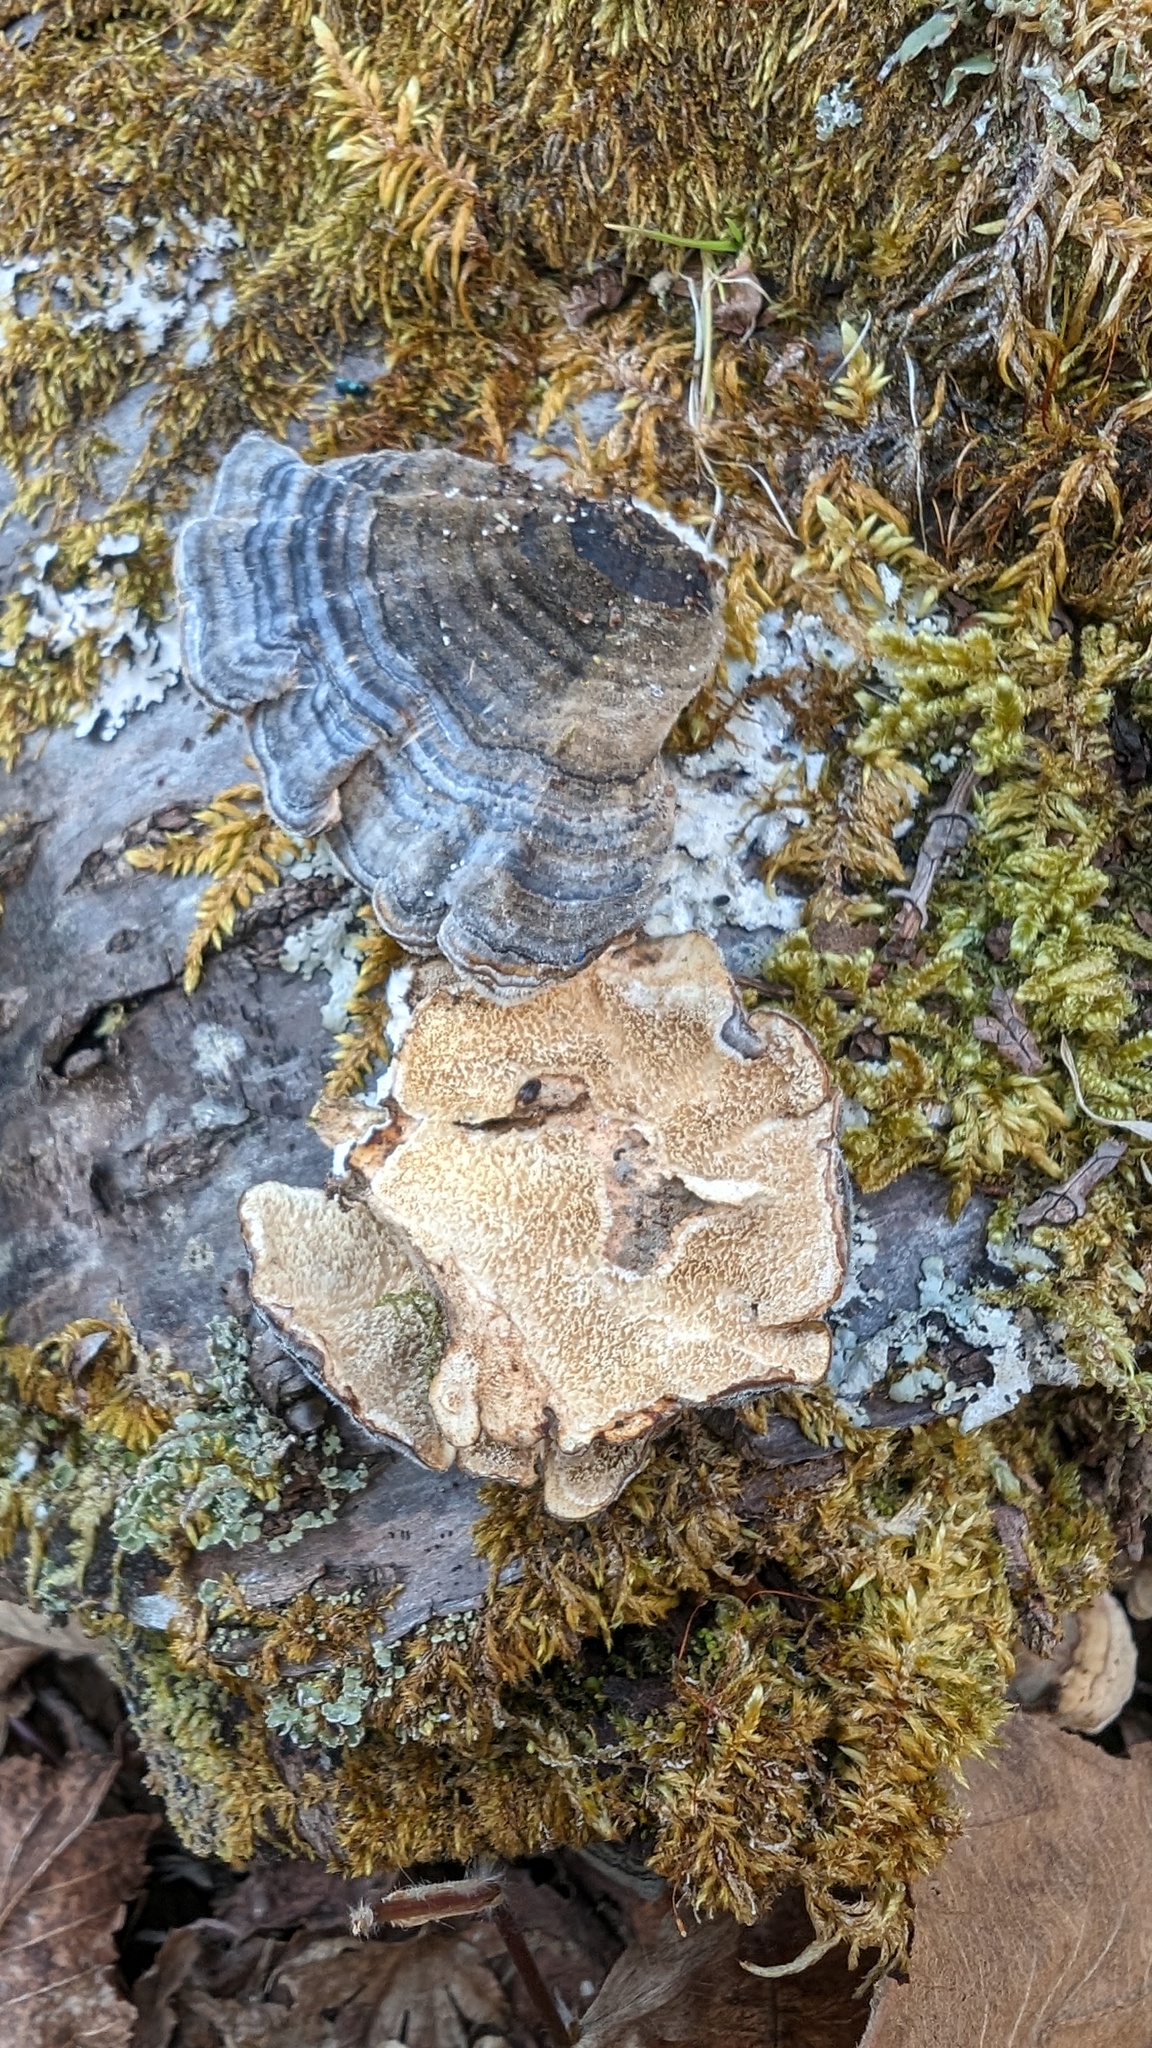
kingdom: Fungi
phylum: Basidiomycota
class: Agaricomycetes
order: Polyporales
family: Polyporaceae
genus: Trametes
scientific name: Trametes versicolor
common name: Turkeytail
